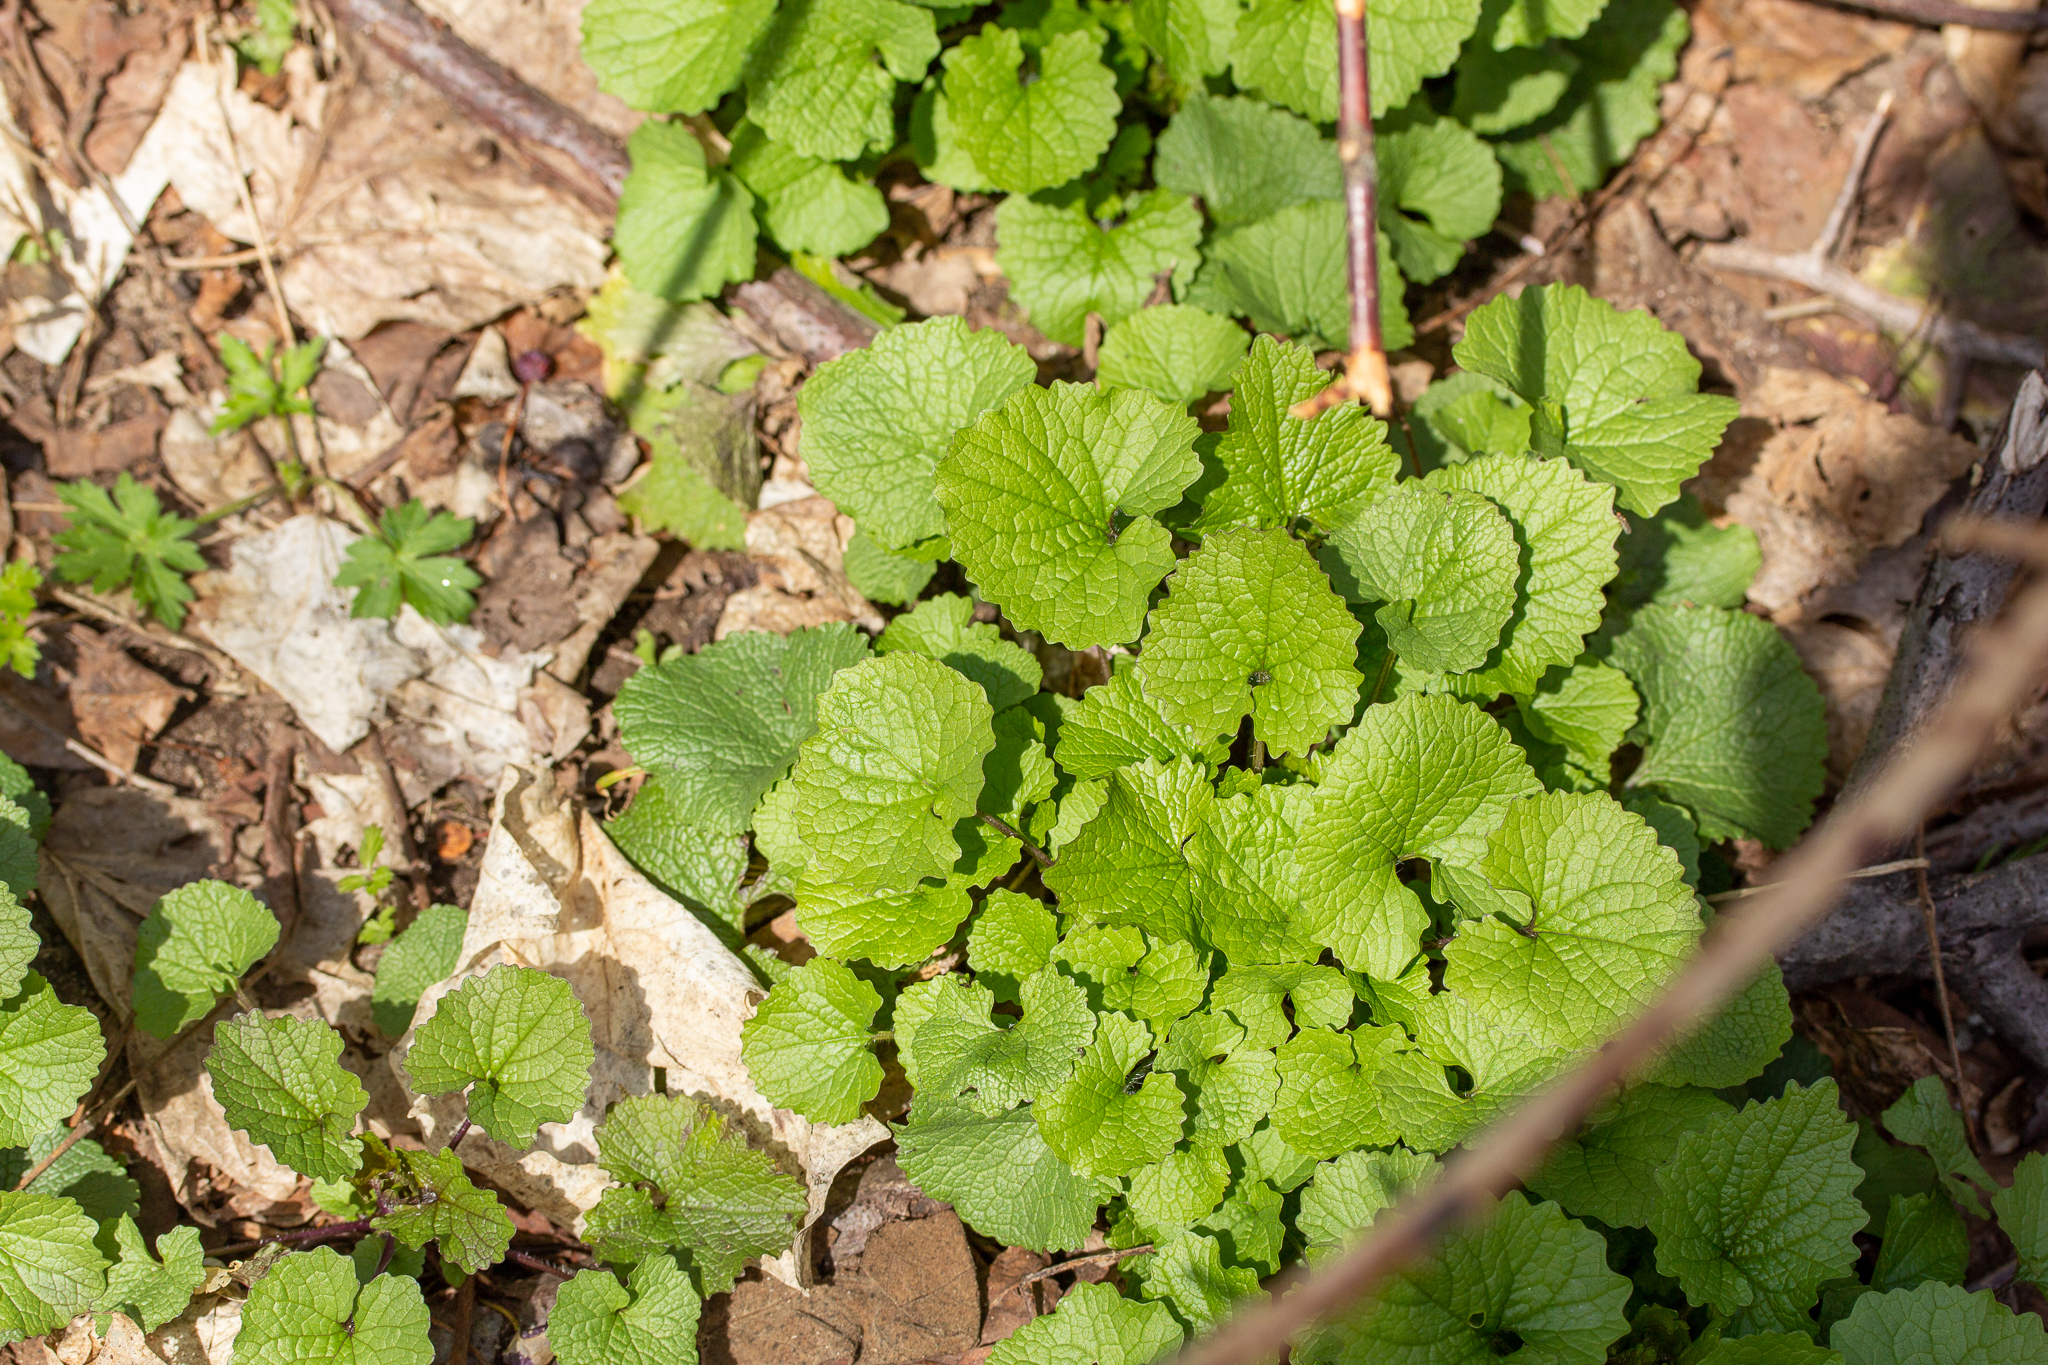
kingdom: Plantae
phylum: Tracheophyta
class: Magnoliopsida
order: Brassicales
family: Brassicaceae
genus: Alliaria
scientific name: Alliaria petiolata
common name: Garlic mustard
